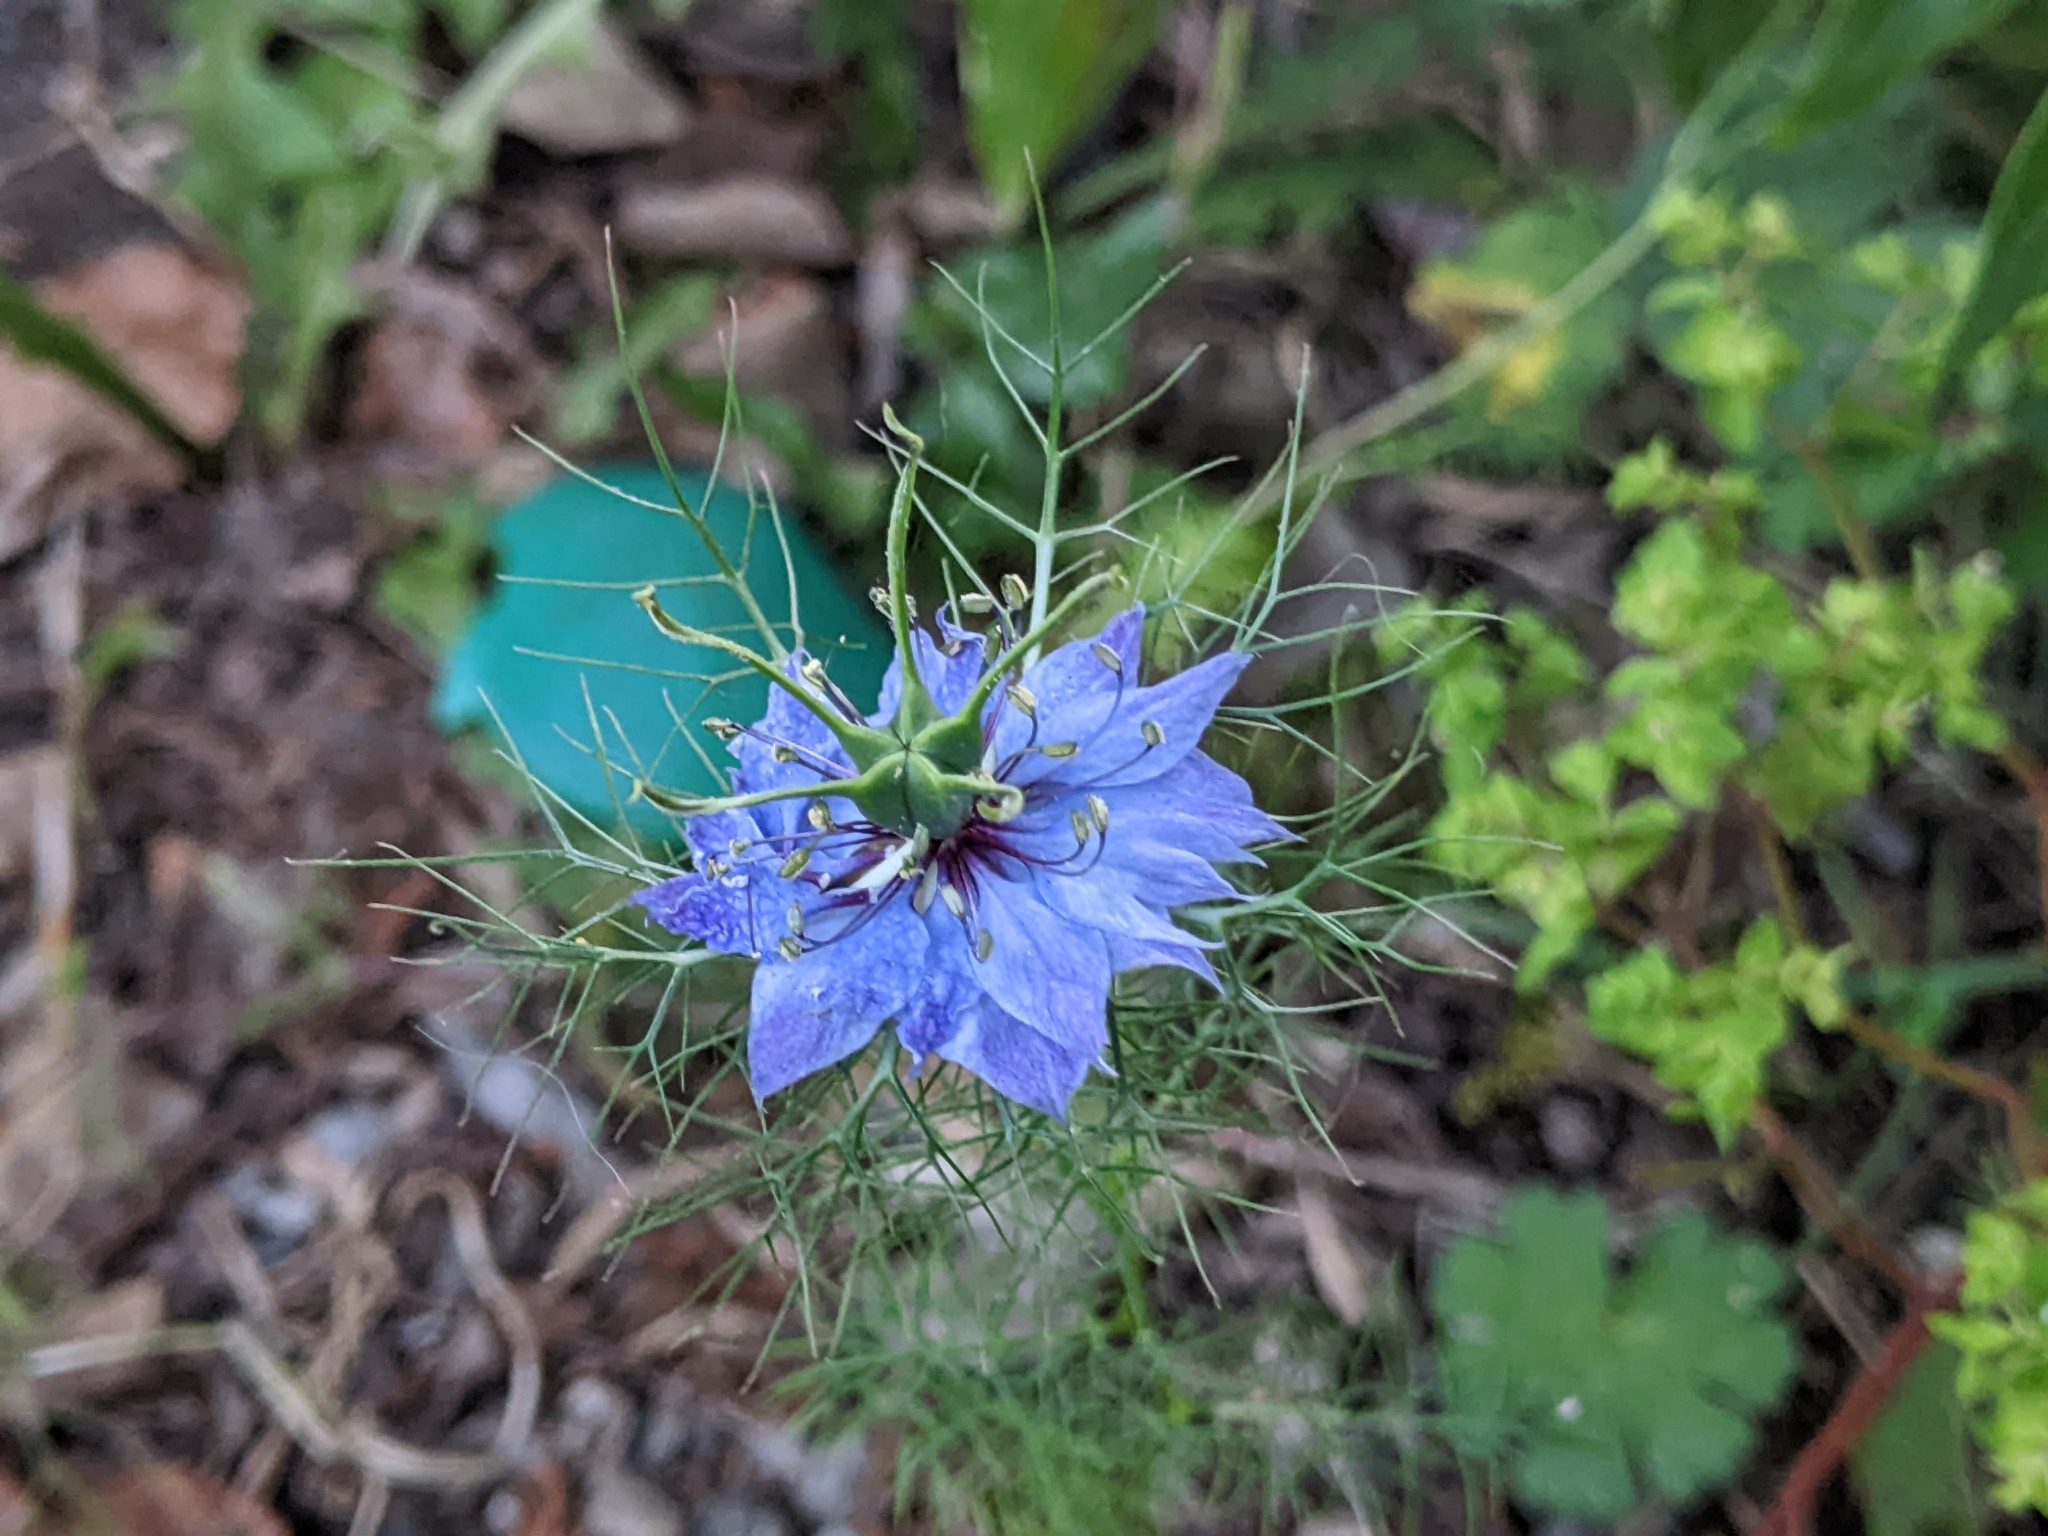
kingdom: Plantae
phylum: Tracheophyta
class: Magnoliopsida
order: Ranunculales
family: Ranunculaceae
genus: Nigella
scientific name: Nigella damascena
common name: Love-in-a-mist
